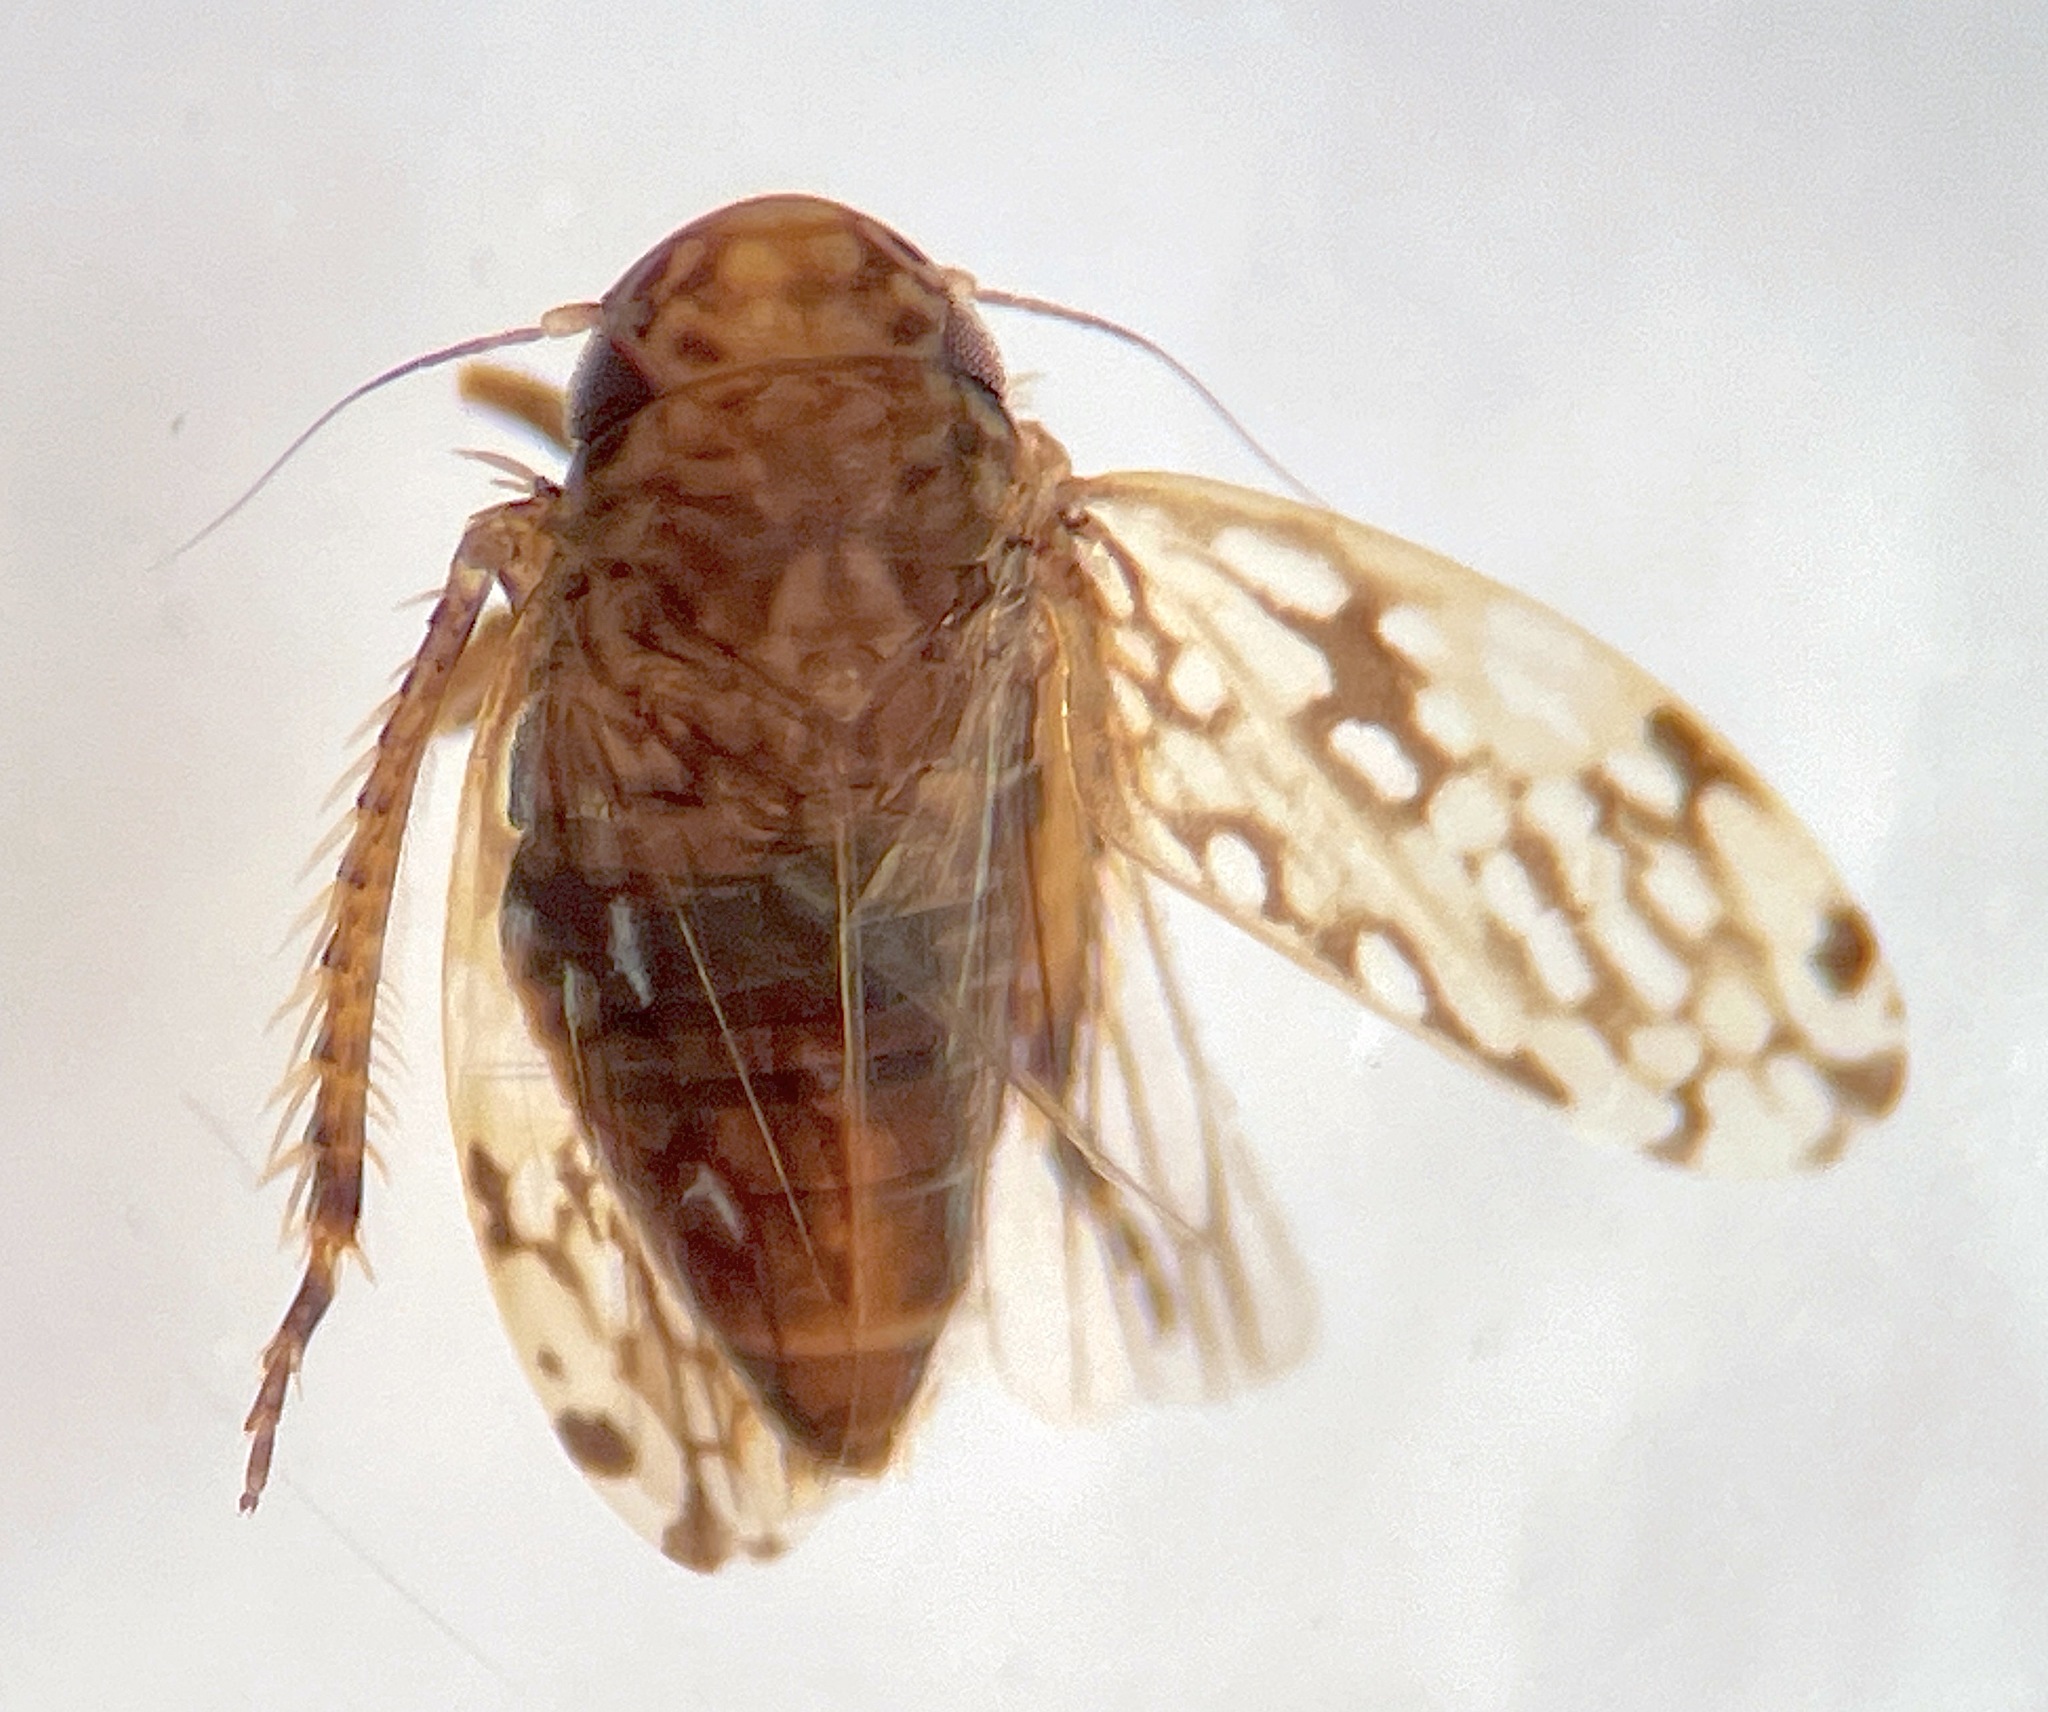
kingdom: Animalia
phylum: Arthropoda
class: Insecta
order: Hemiptera
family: Cicadellidae
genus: Xestocephalus
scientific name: Xestocephalus ovalis
